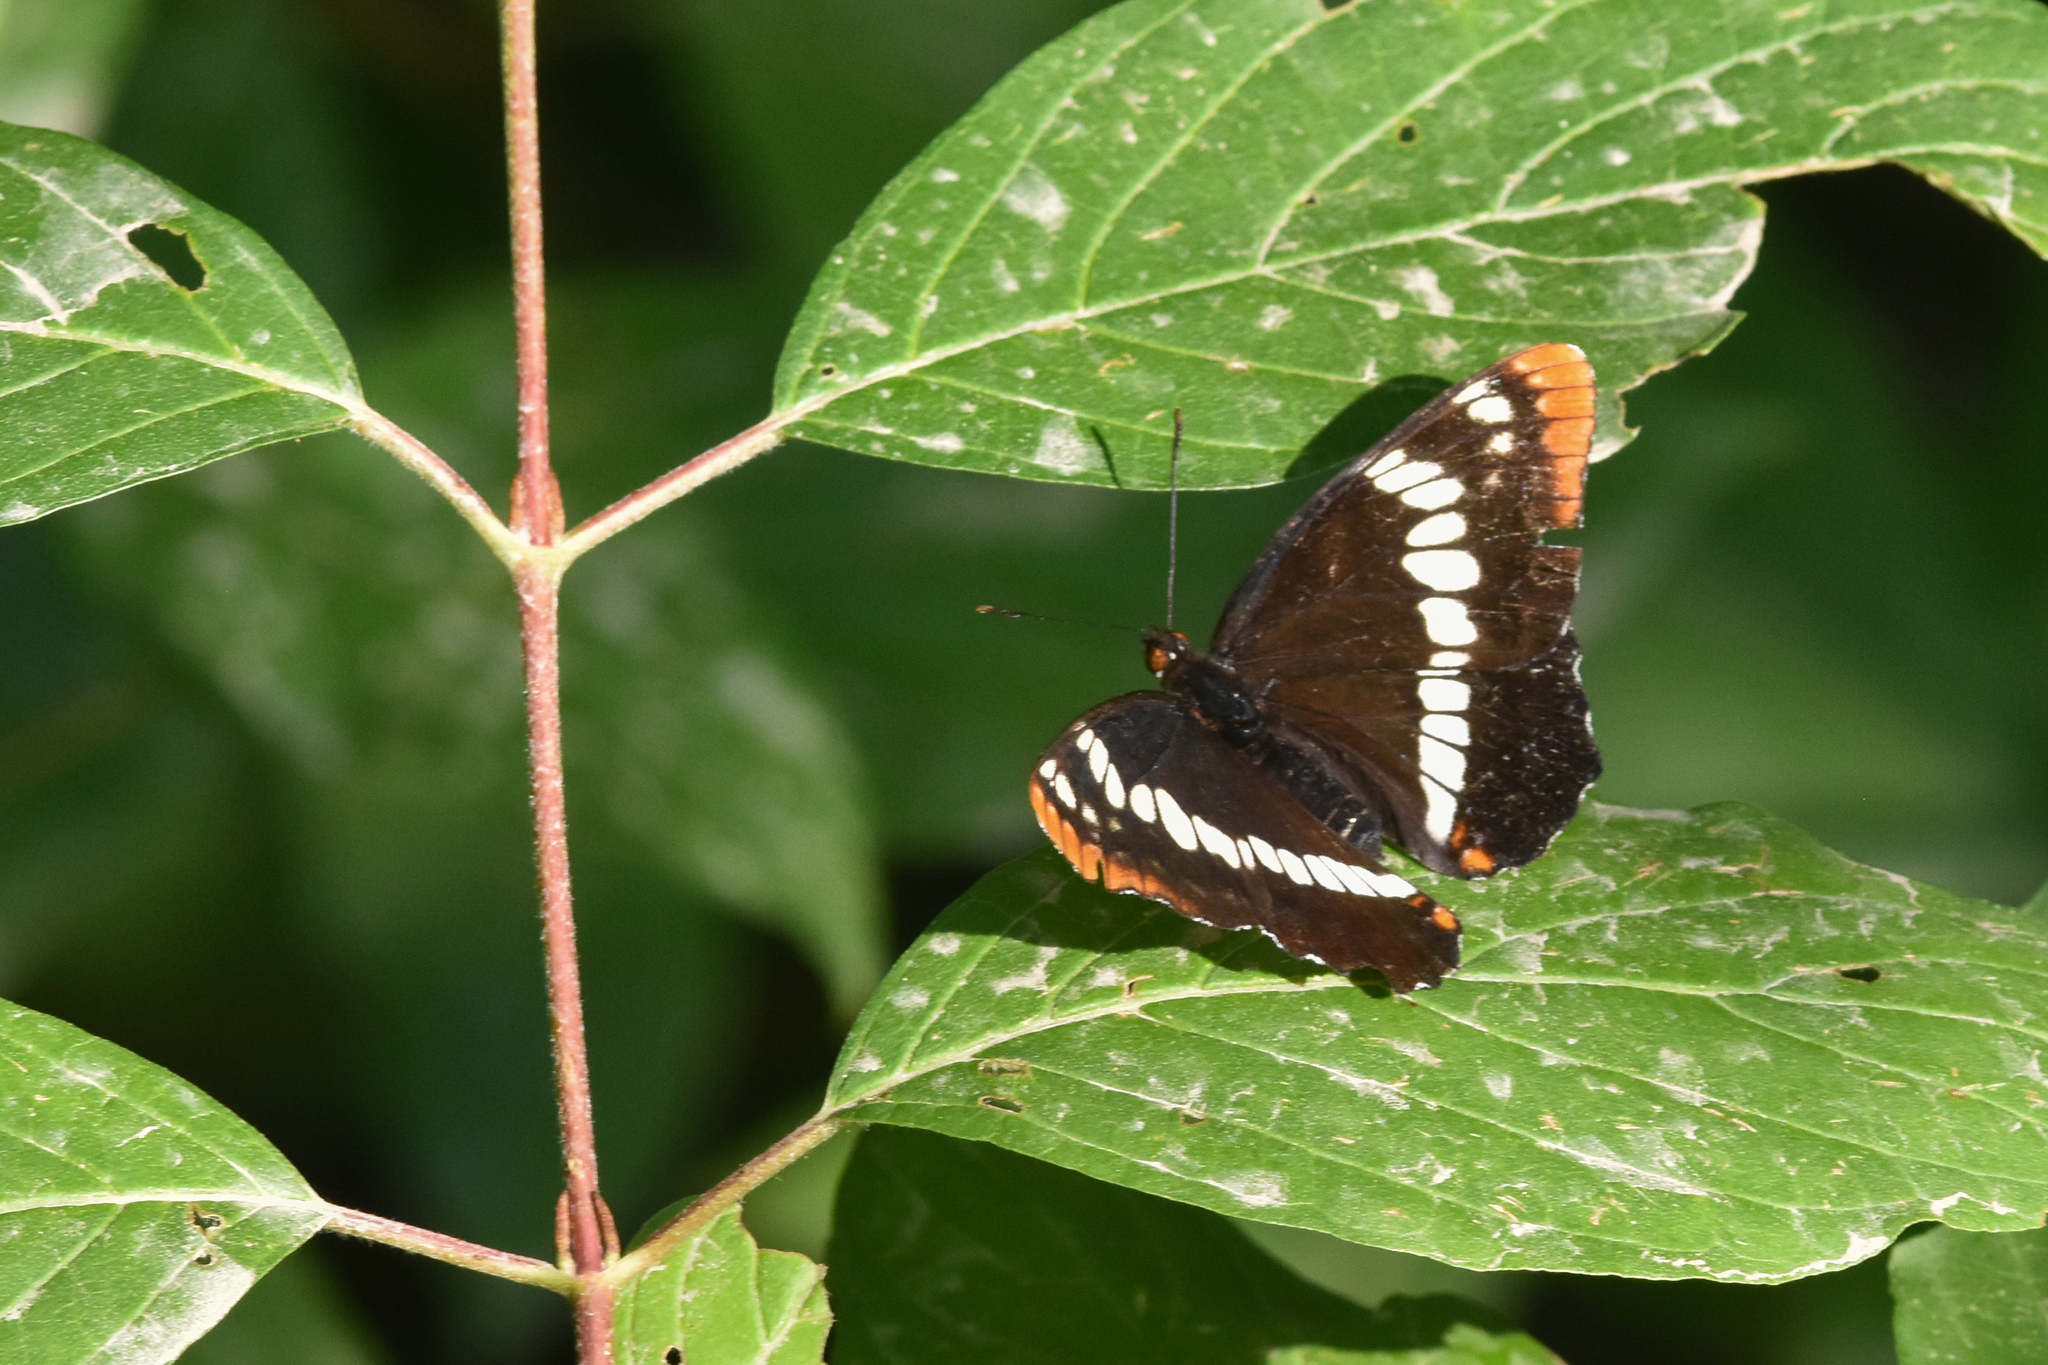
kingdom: Animalia
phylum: Arthropoda
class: Insecta
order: Lepidoptera
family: Nymphalidae
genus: Limenitis
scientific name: Limenitis lorquini
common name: Lorquin's admiral
